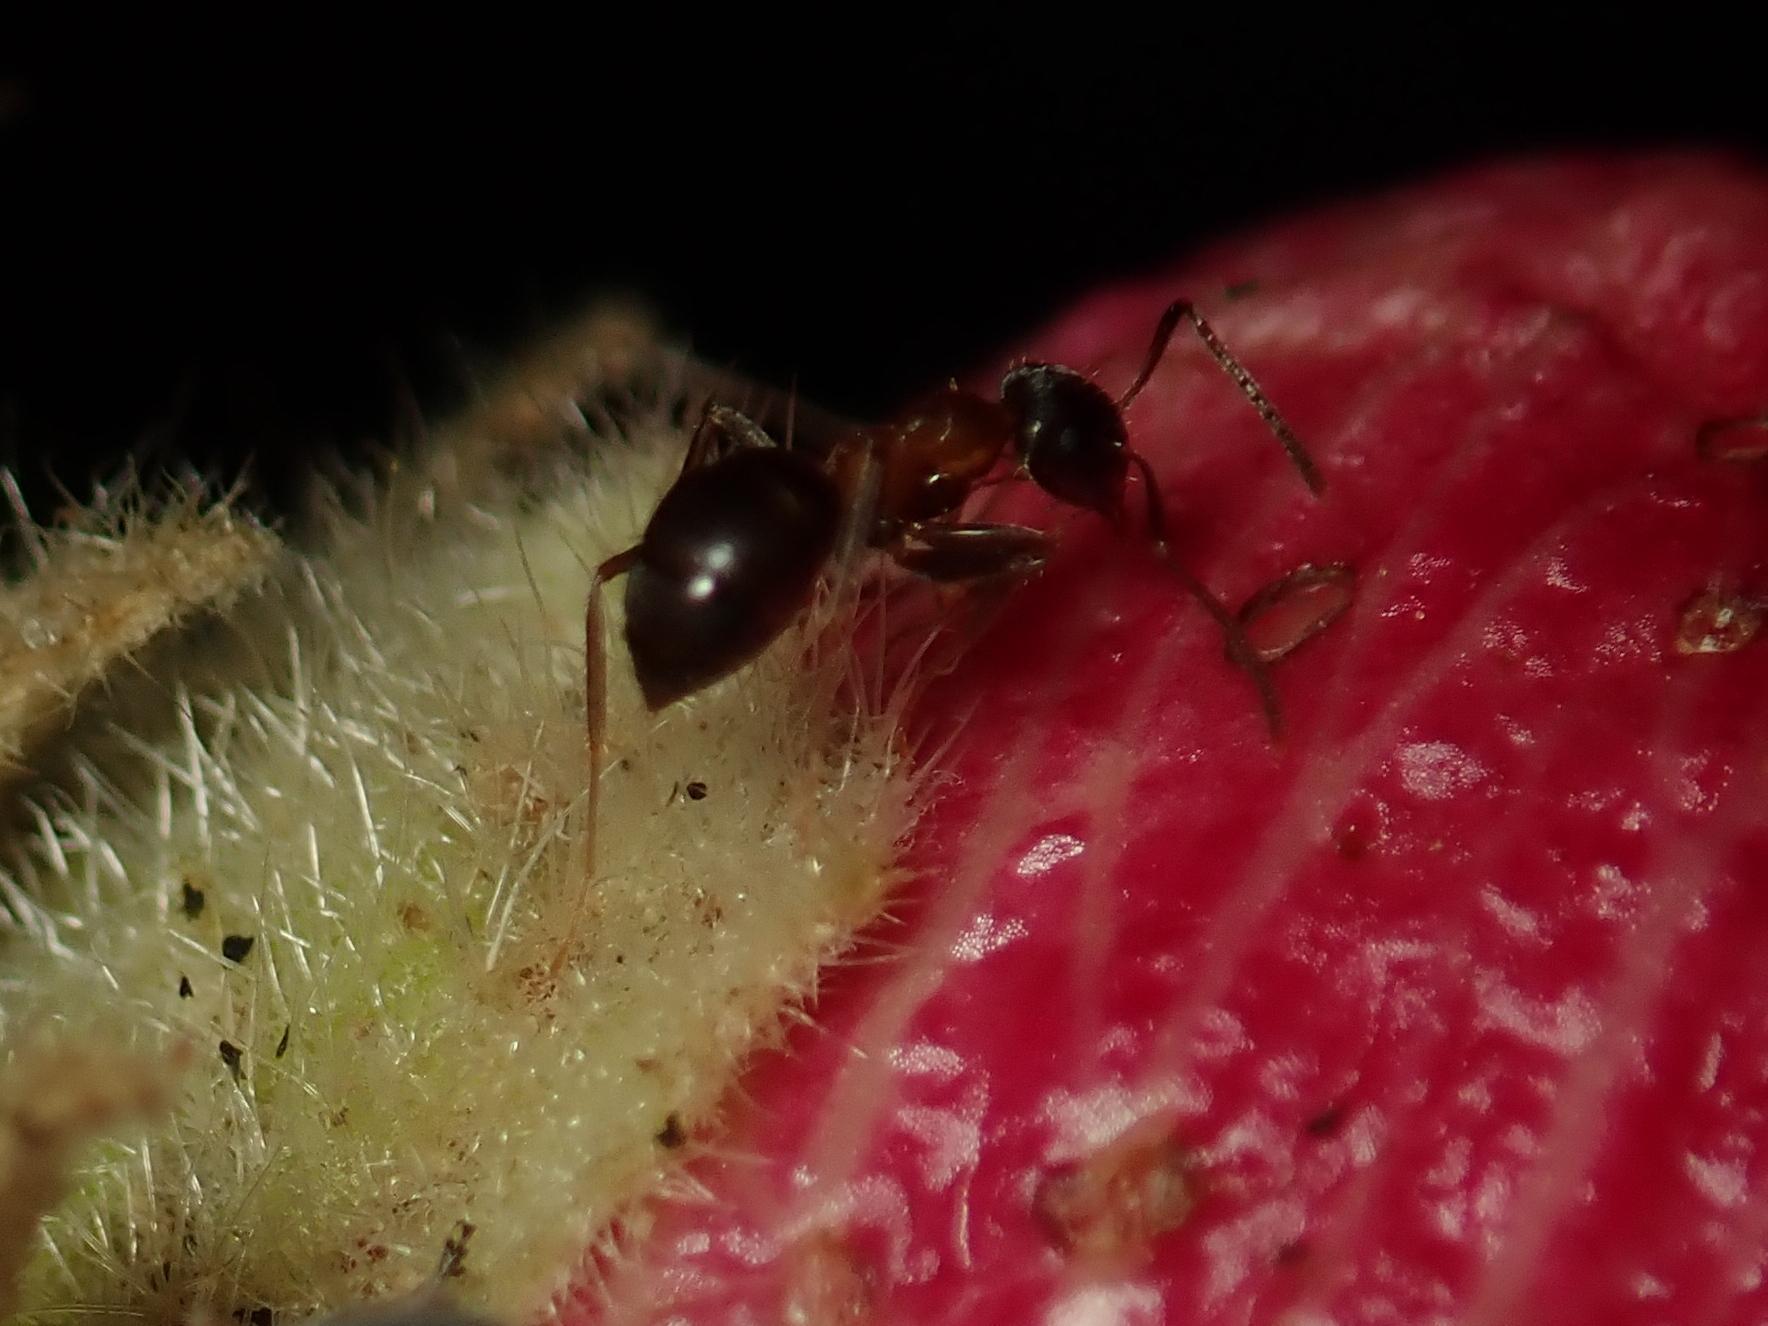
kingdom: Animalia
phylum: Arthropoda
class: Insecta
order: Hymenoptera
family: Formicidae
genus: Lasius
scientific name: Lasius emarginatus
